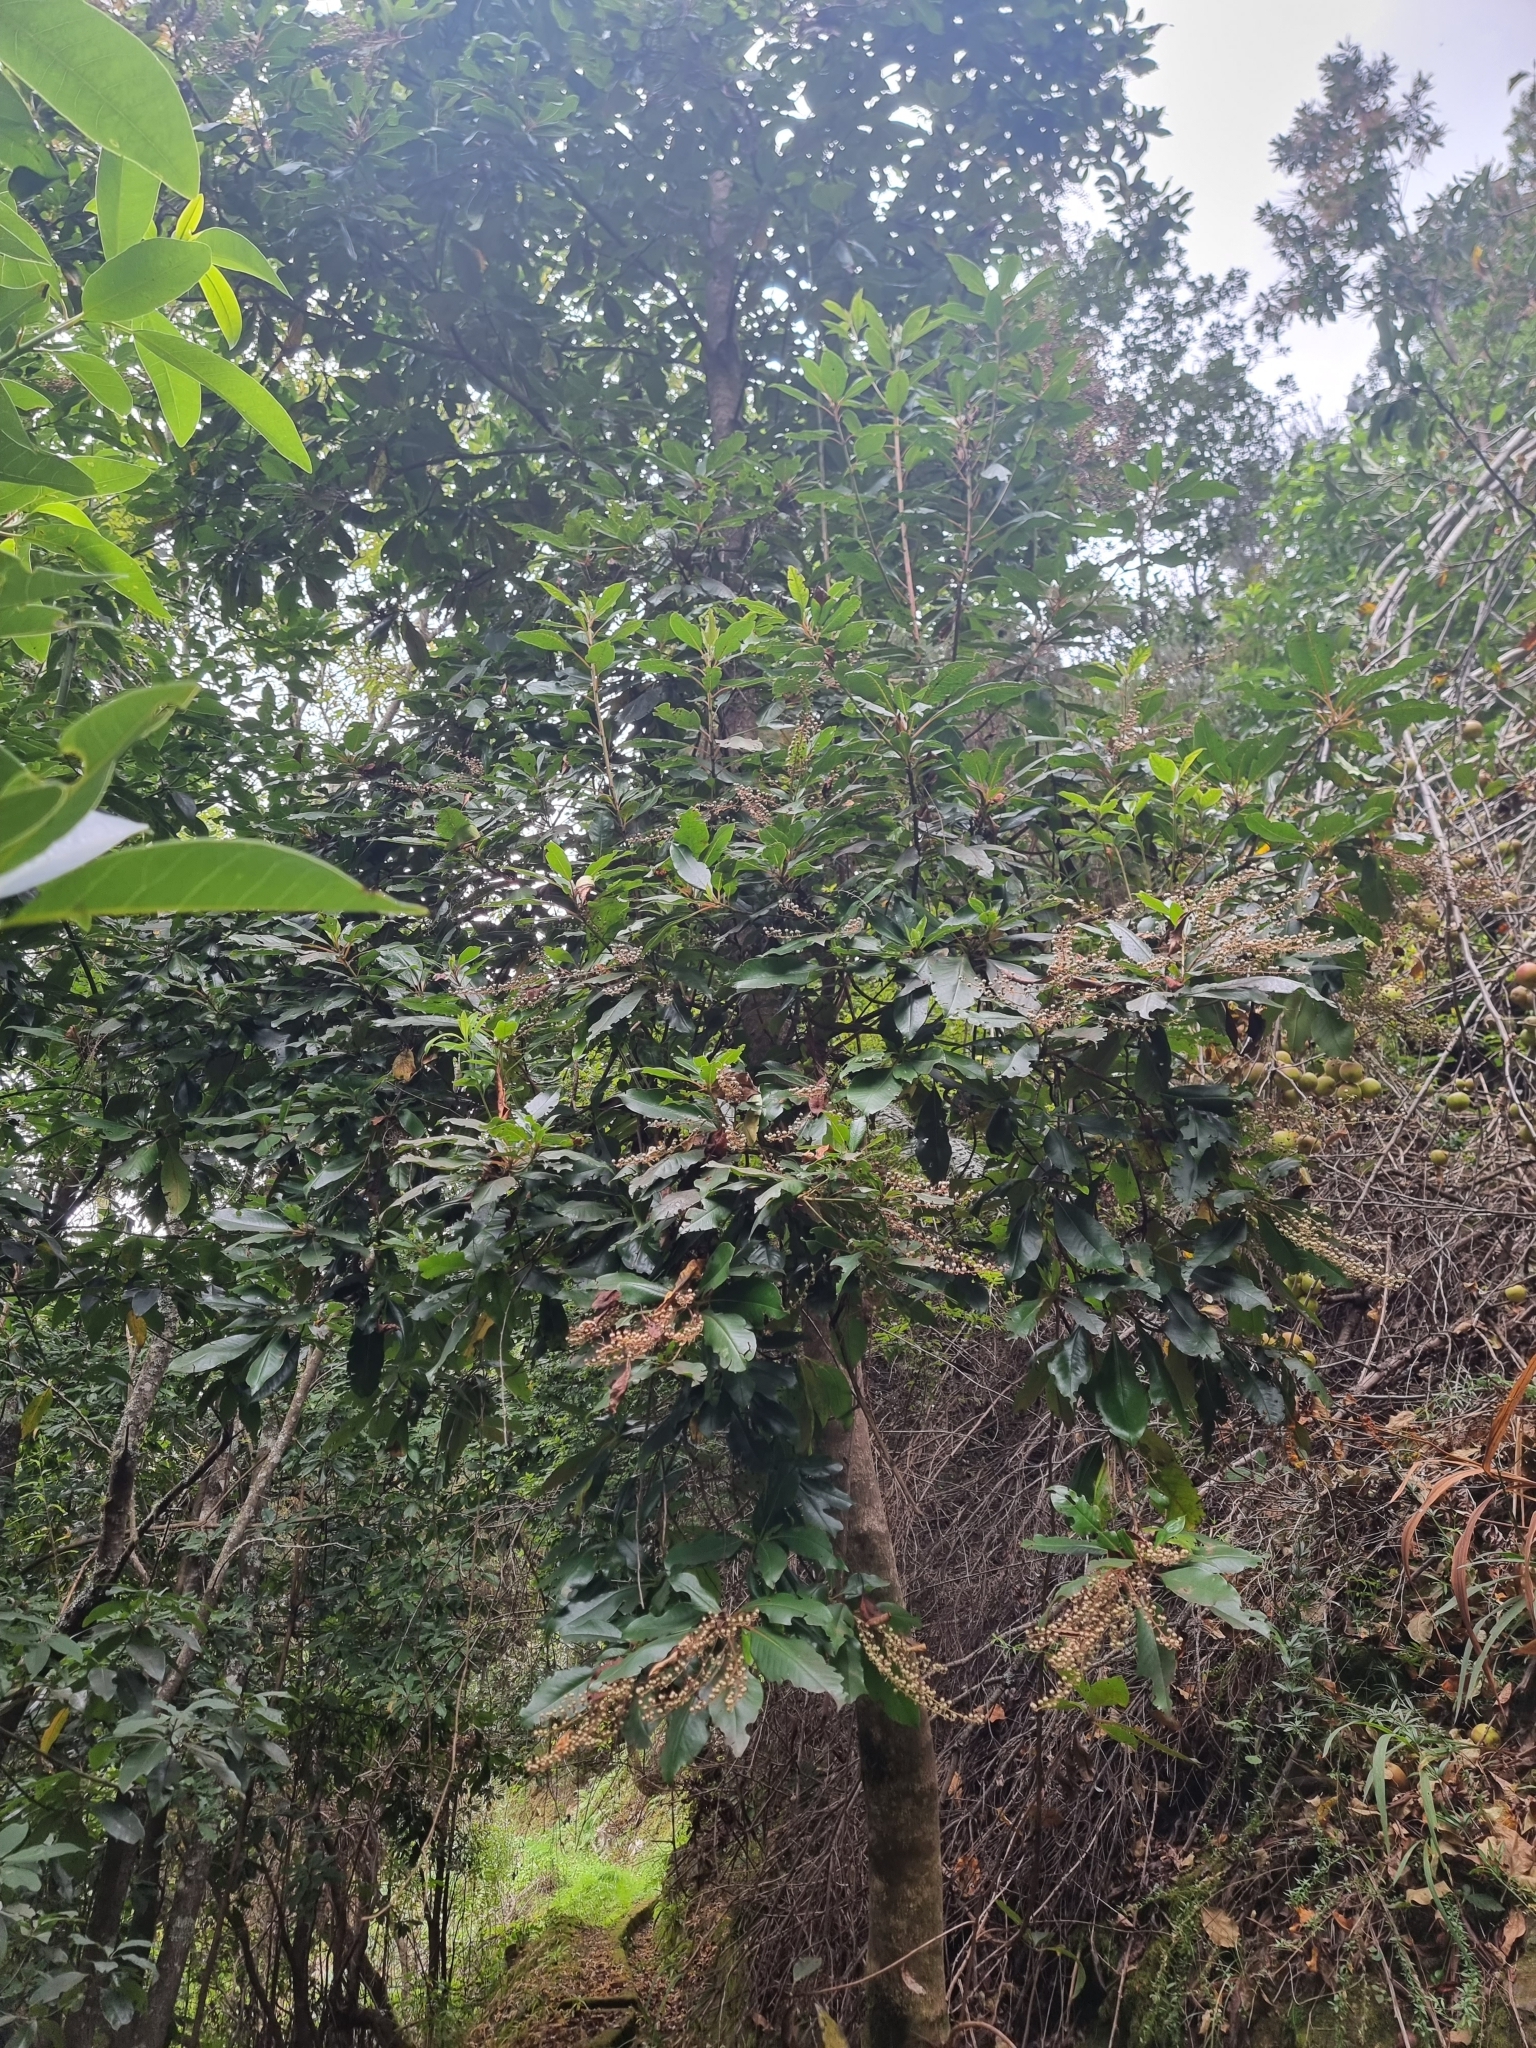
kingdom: Plantae
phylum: Tracheophyta
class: Magnoliopsida
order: Ericales
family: Clethraceae
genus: Clethra
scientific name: Clethra arborea
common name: Lily-of-the-valley-tree
